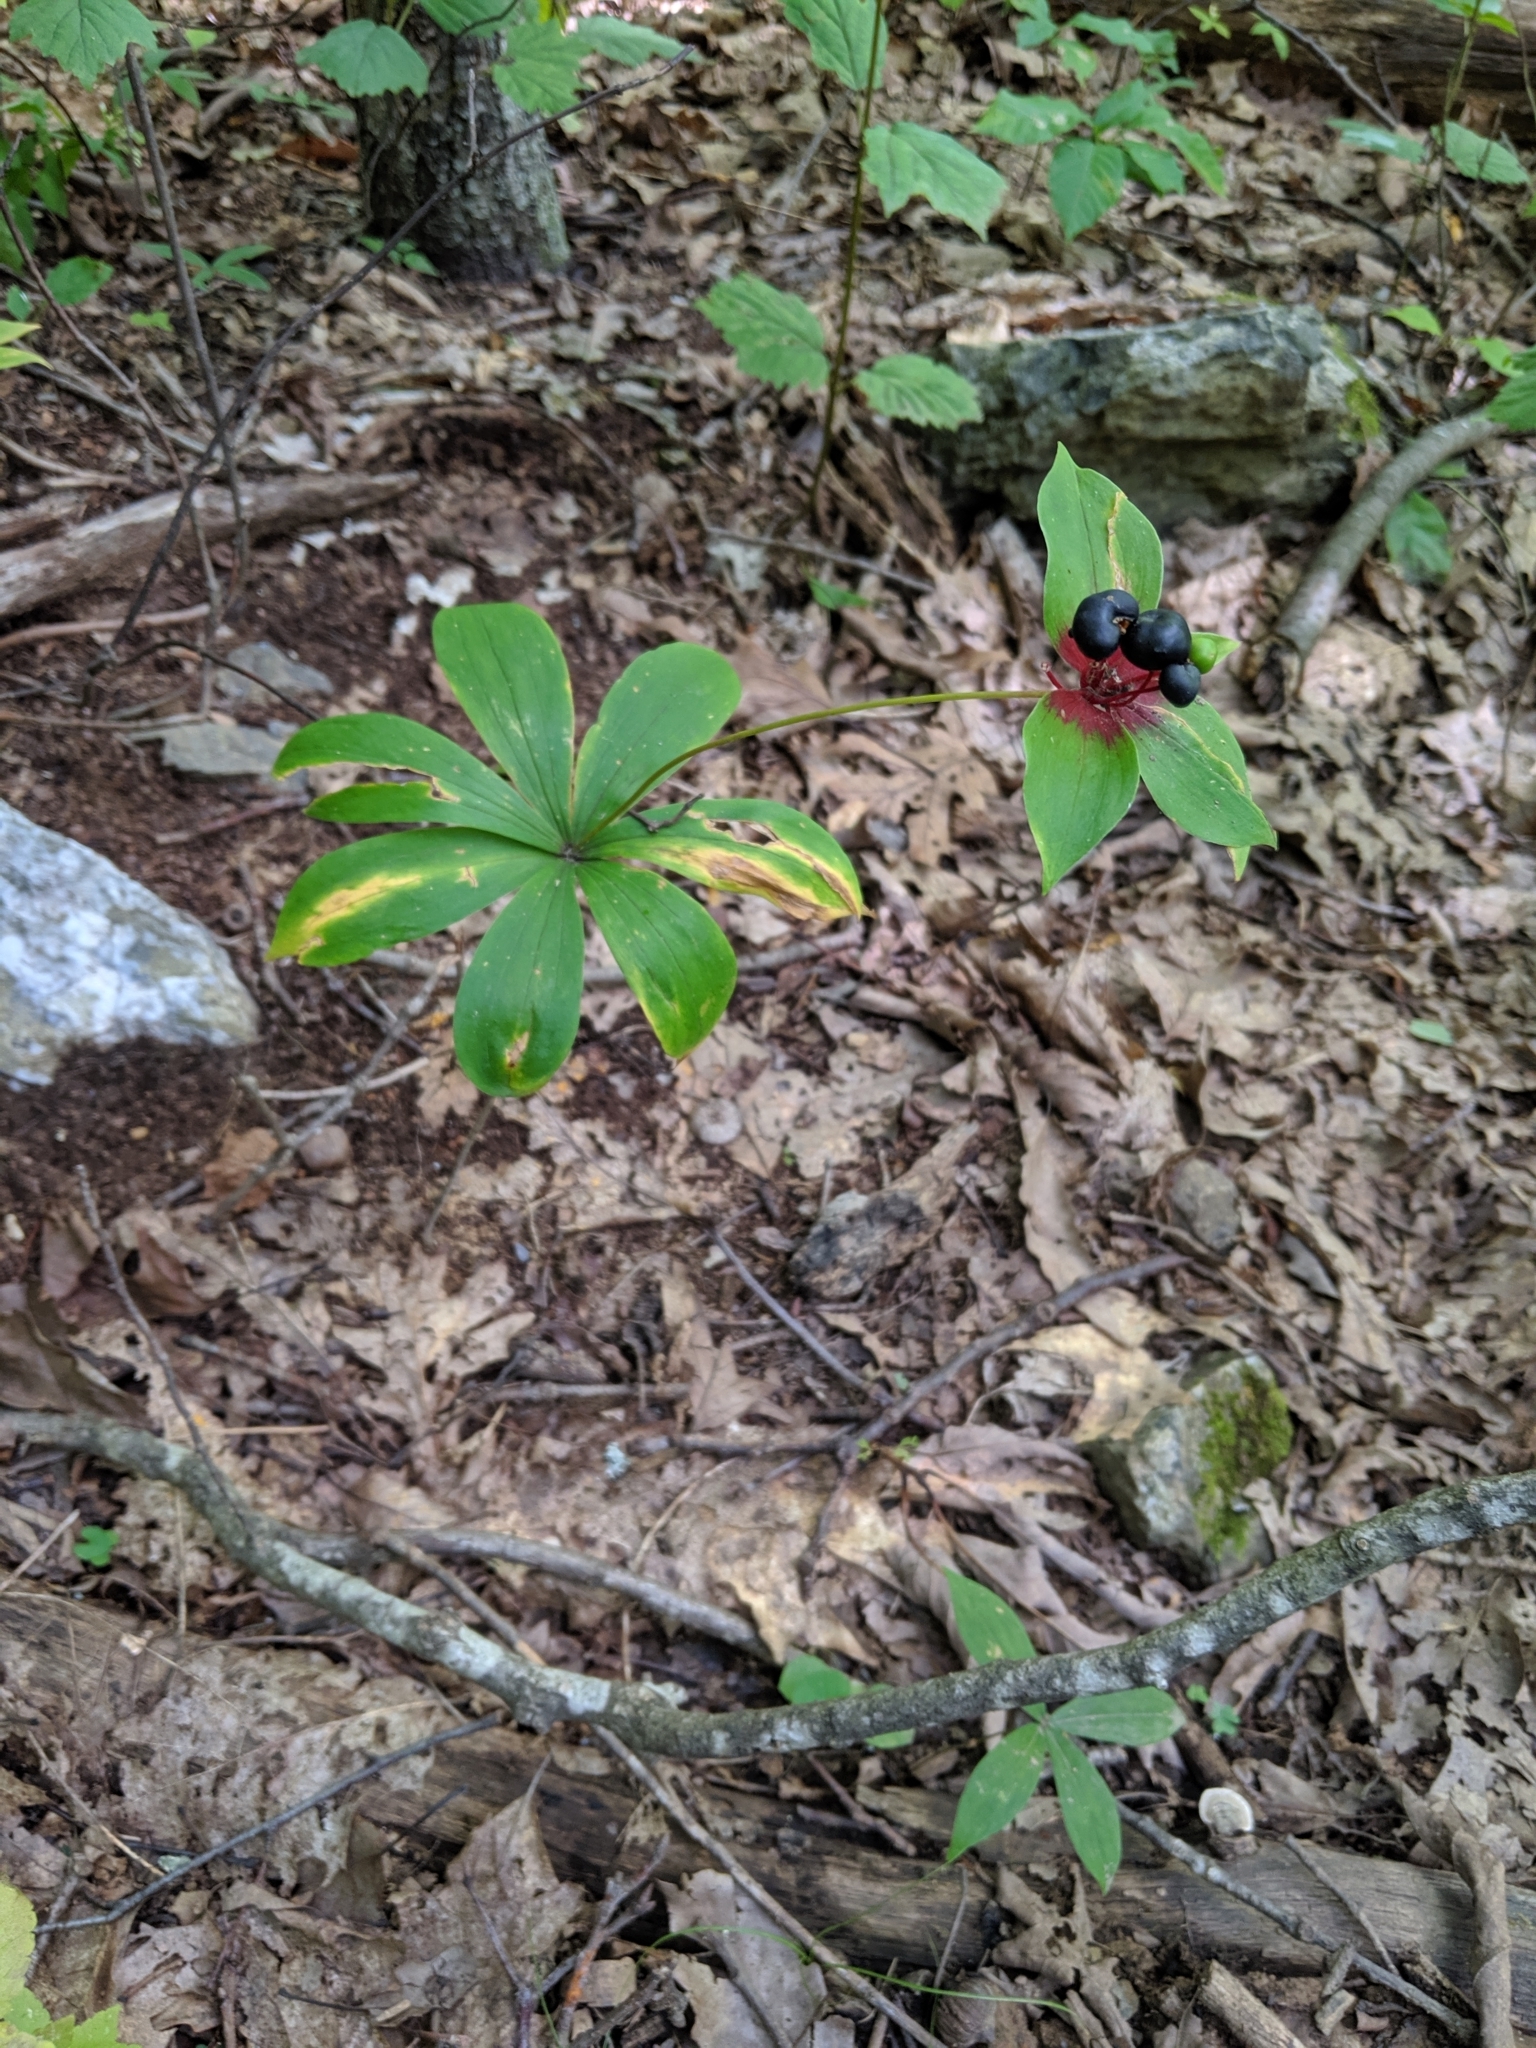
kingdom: Plantae
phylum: Tracheophyta
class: Liliopsida
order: Liliales
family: Liliaceae
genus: Medeola
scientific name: Medeola virginiana
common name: Indian cucumber-root
